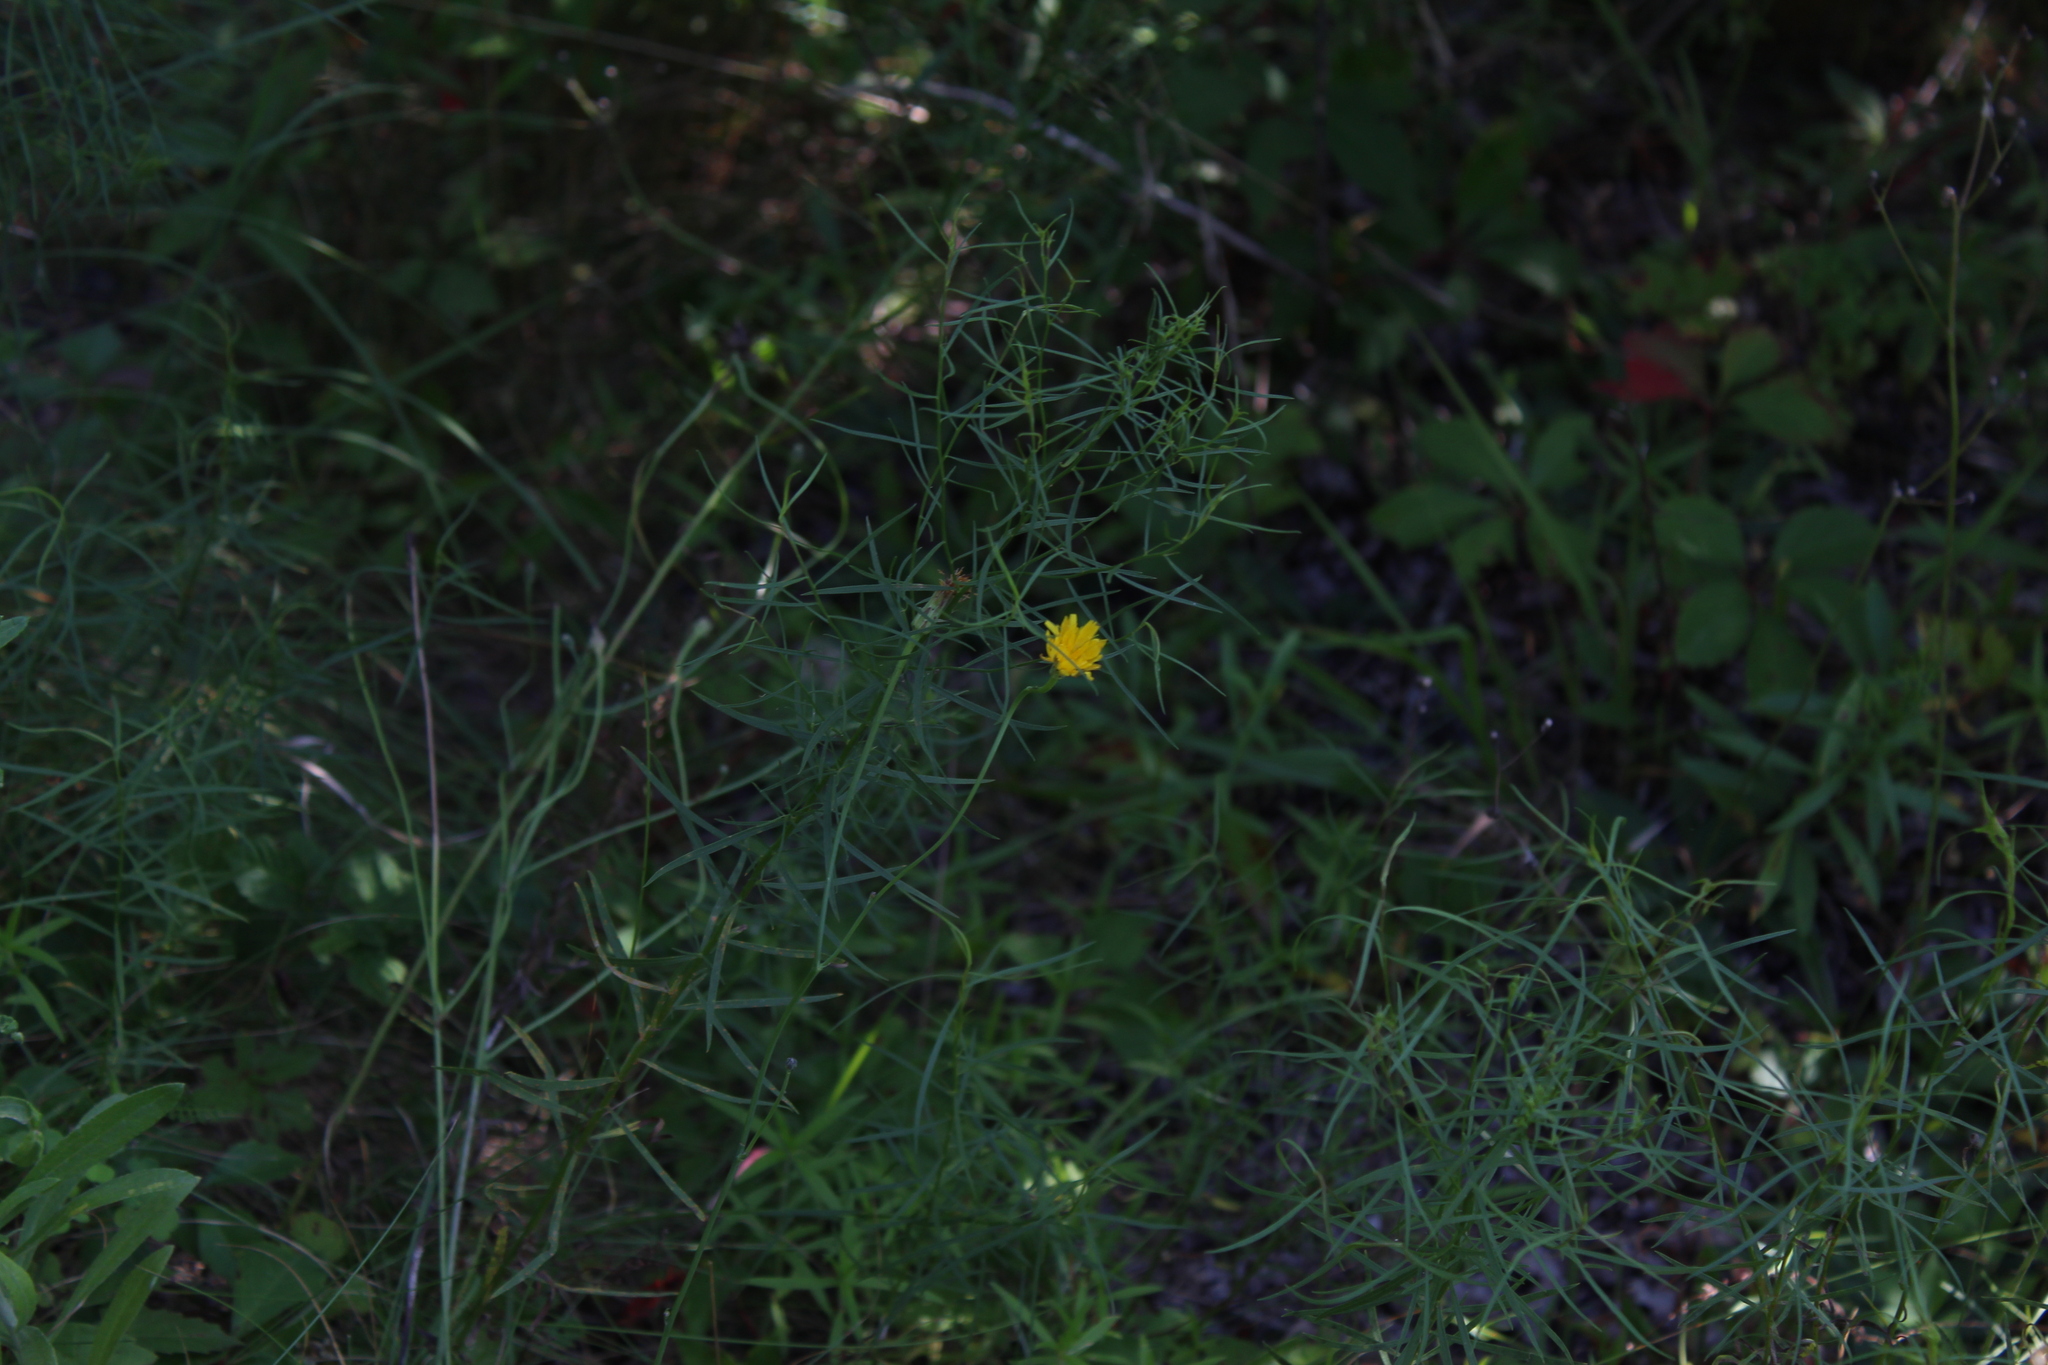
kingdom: Plantae
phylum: Tracheophyta
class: Magnoliopsida
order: Asterales
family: Asteraceae
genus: Hieracium
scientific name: Hieracium umbellatum
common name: Northern hawkweed
